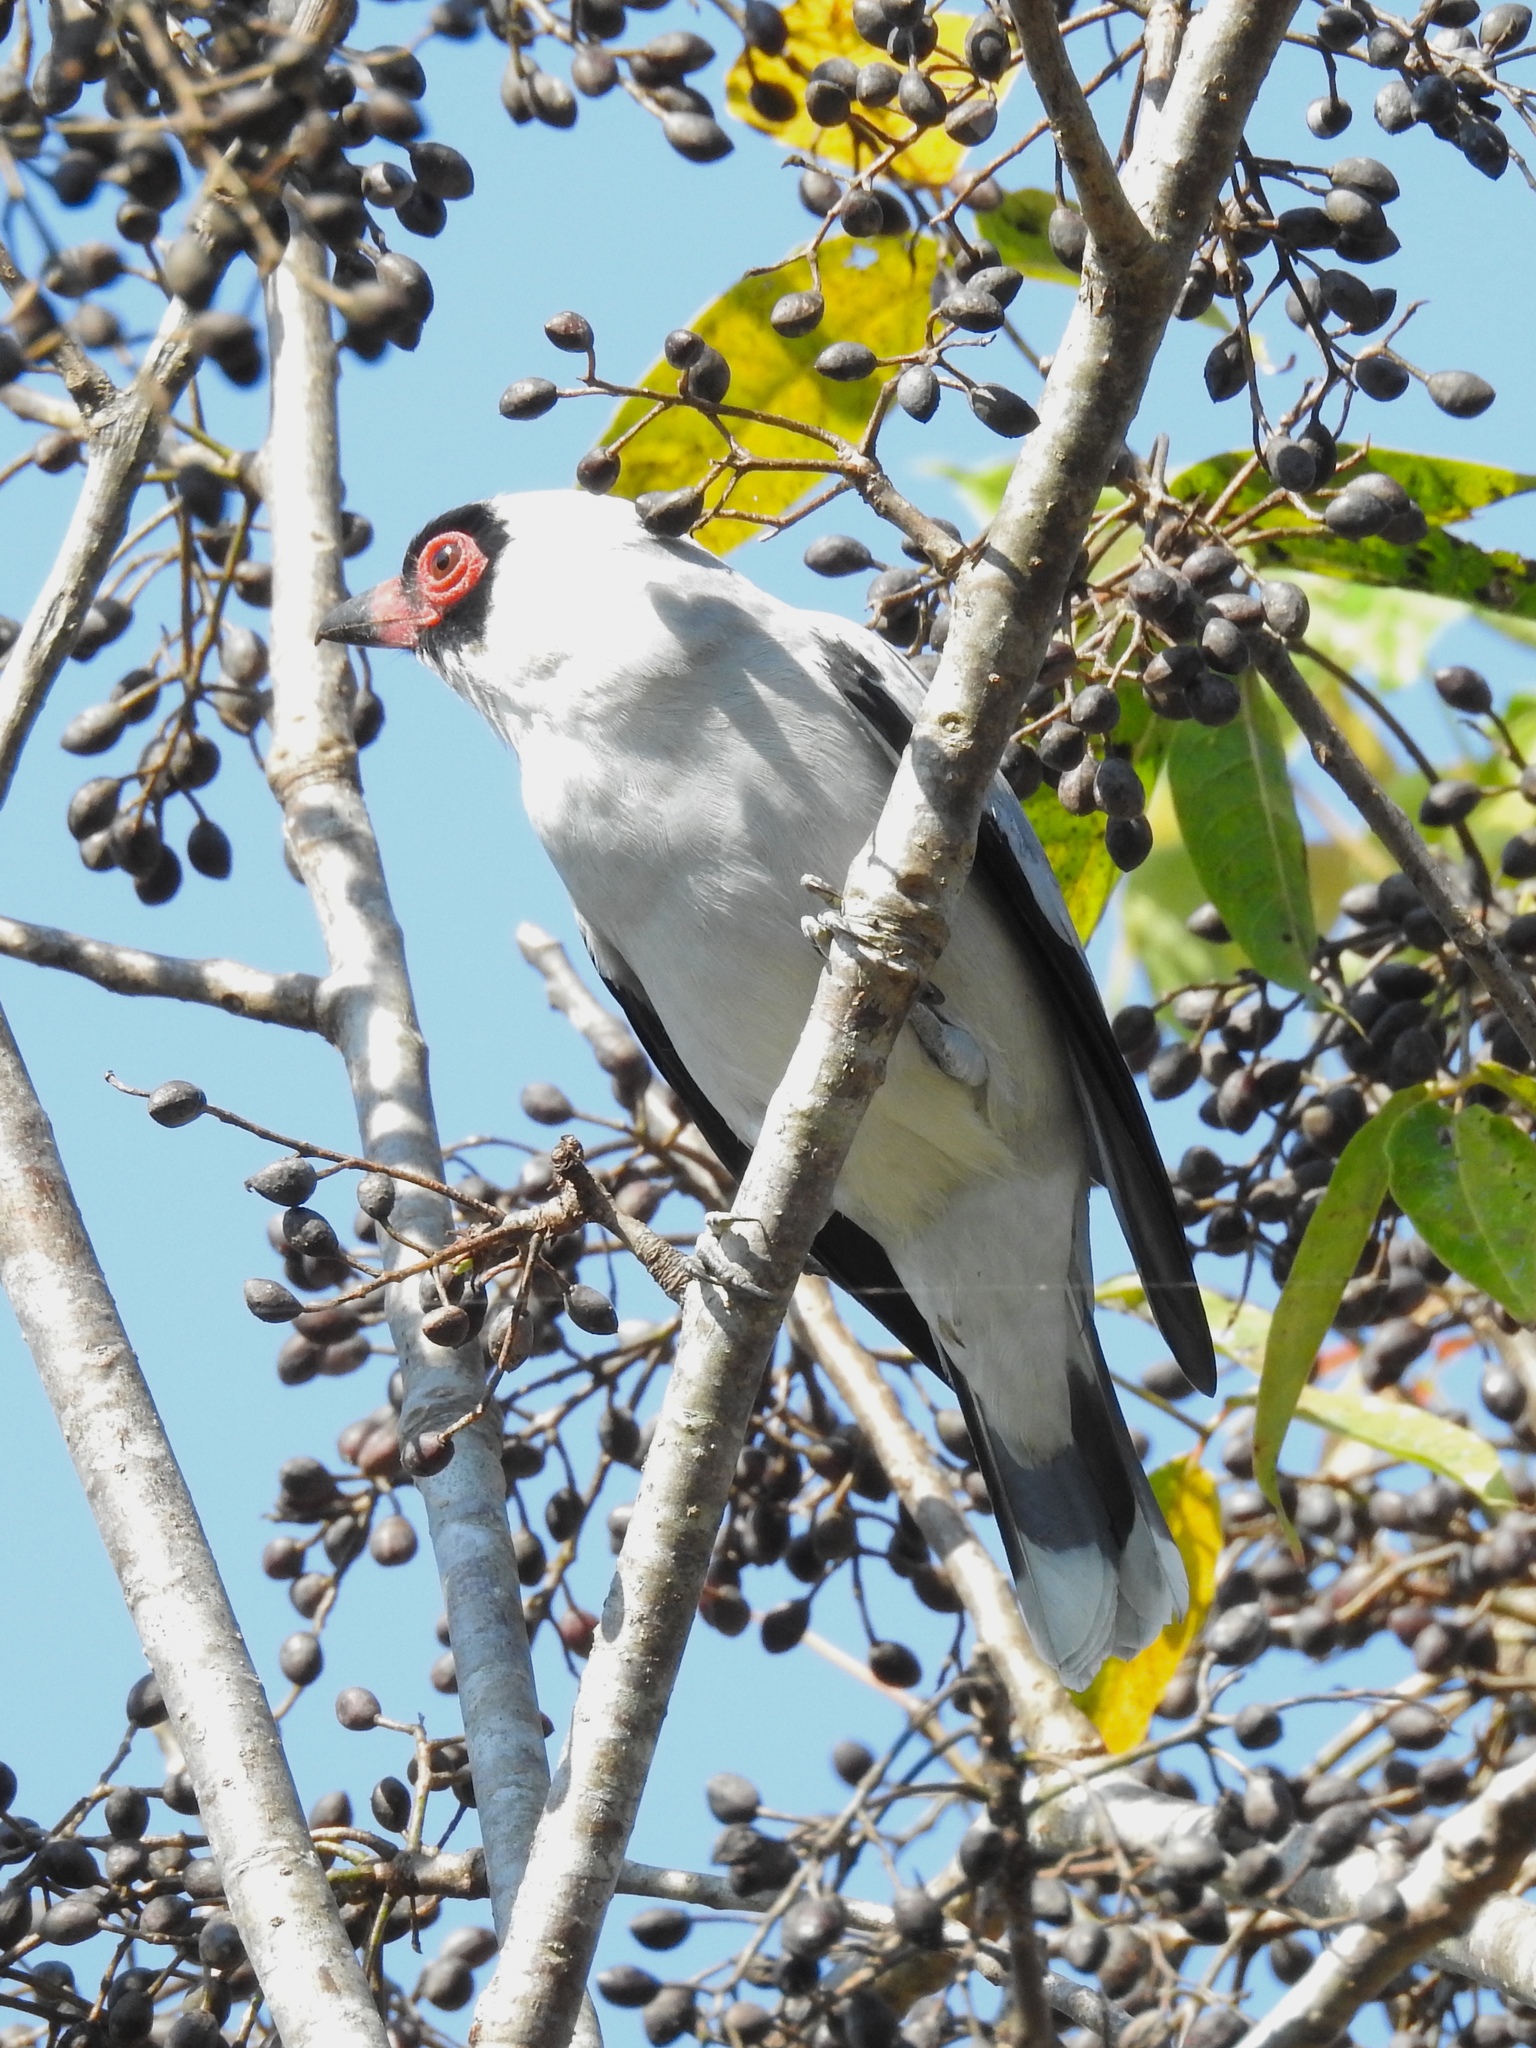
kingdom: Animalia
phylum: Chordata
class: Aves
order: Passeriformes
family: Cotingidae
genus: Tityra
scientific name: Tityra semifasciata
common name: Masked tityra
